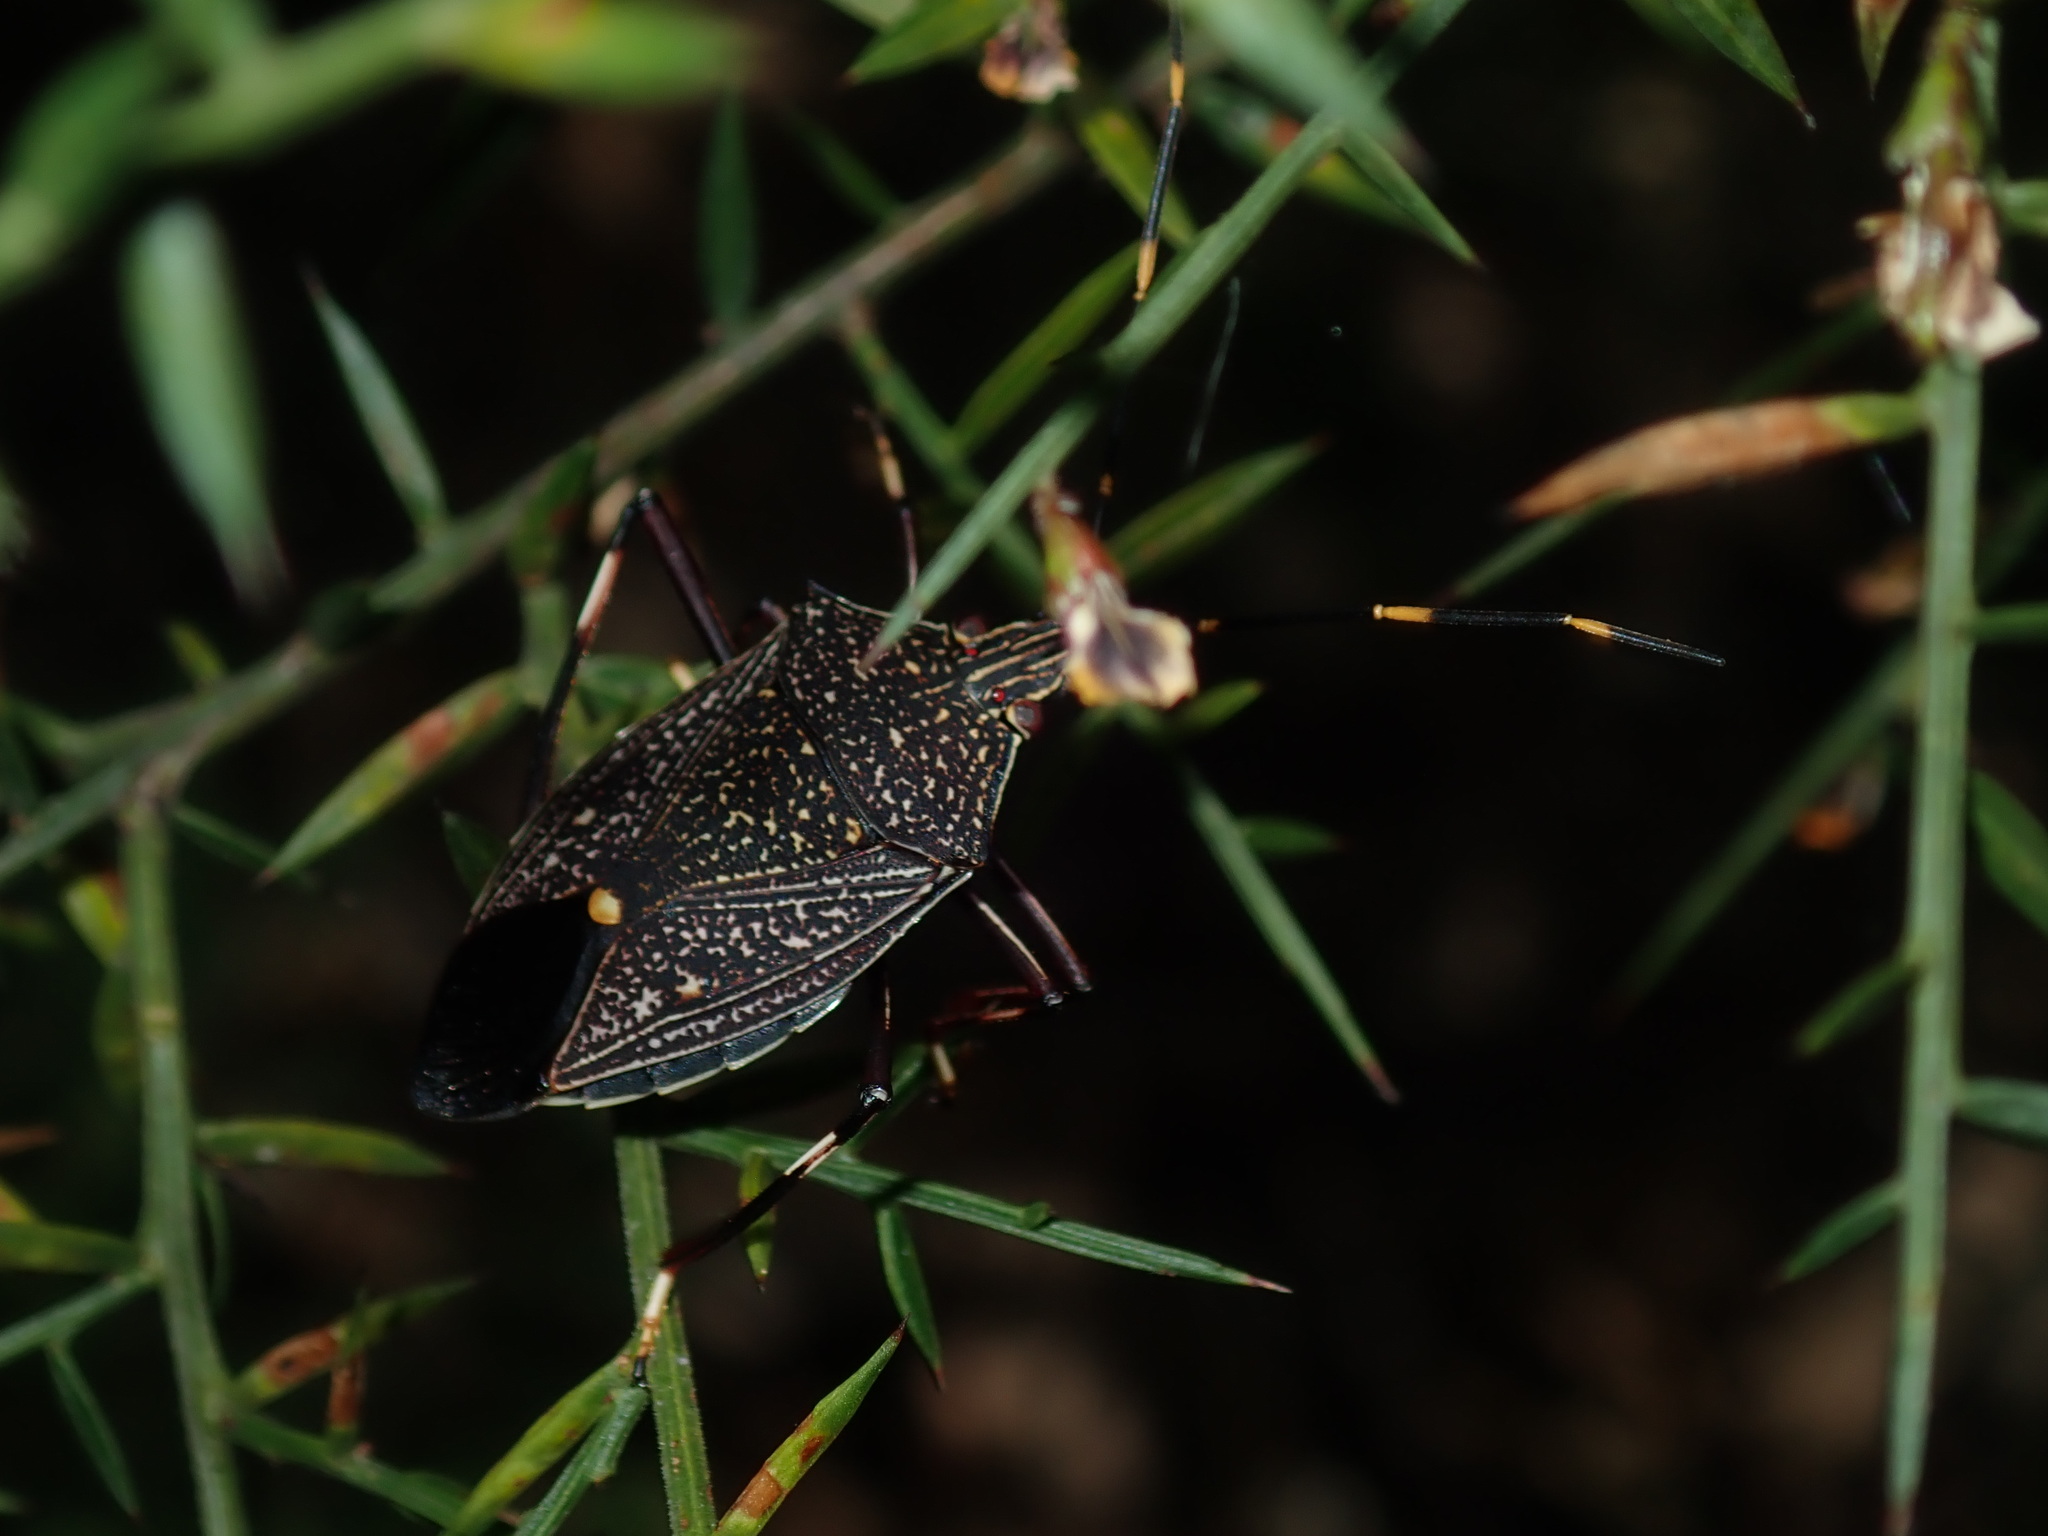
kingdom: Animalia
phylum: Arthropoda
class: Insecta
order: Hemiptera
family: Pentatomidae
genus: Poecilometis
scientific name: Poecilometis
